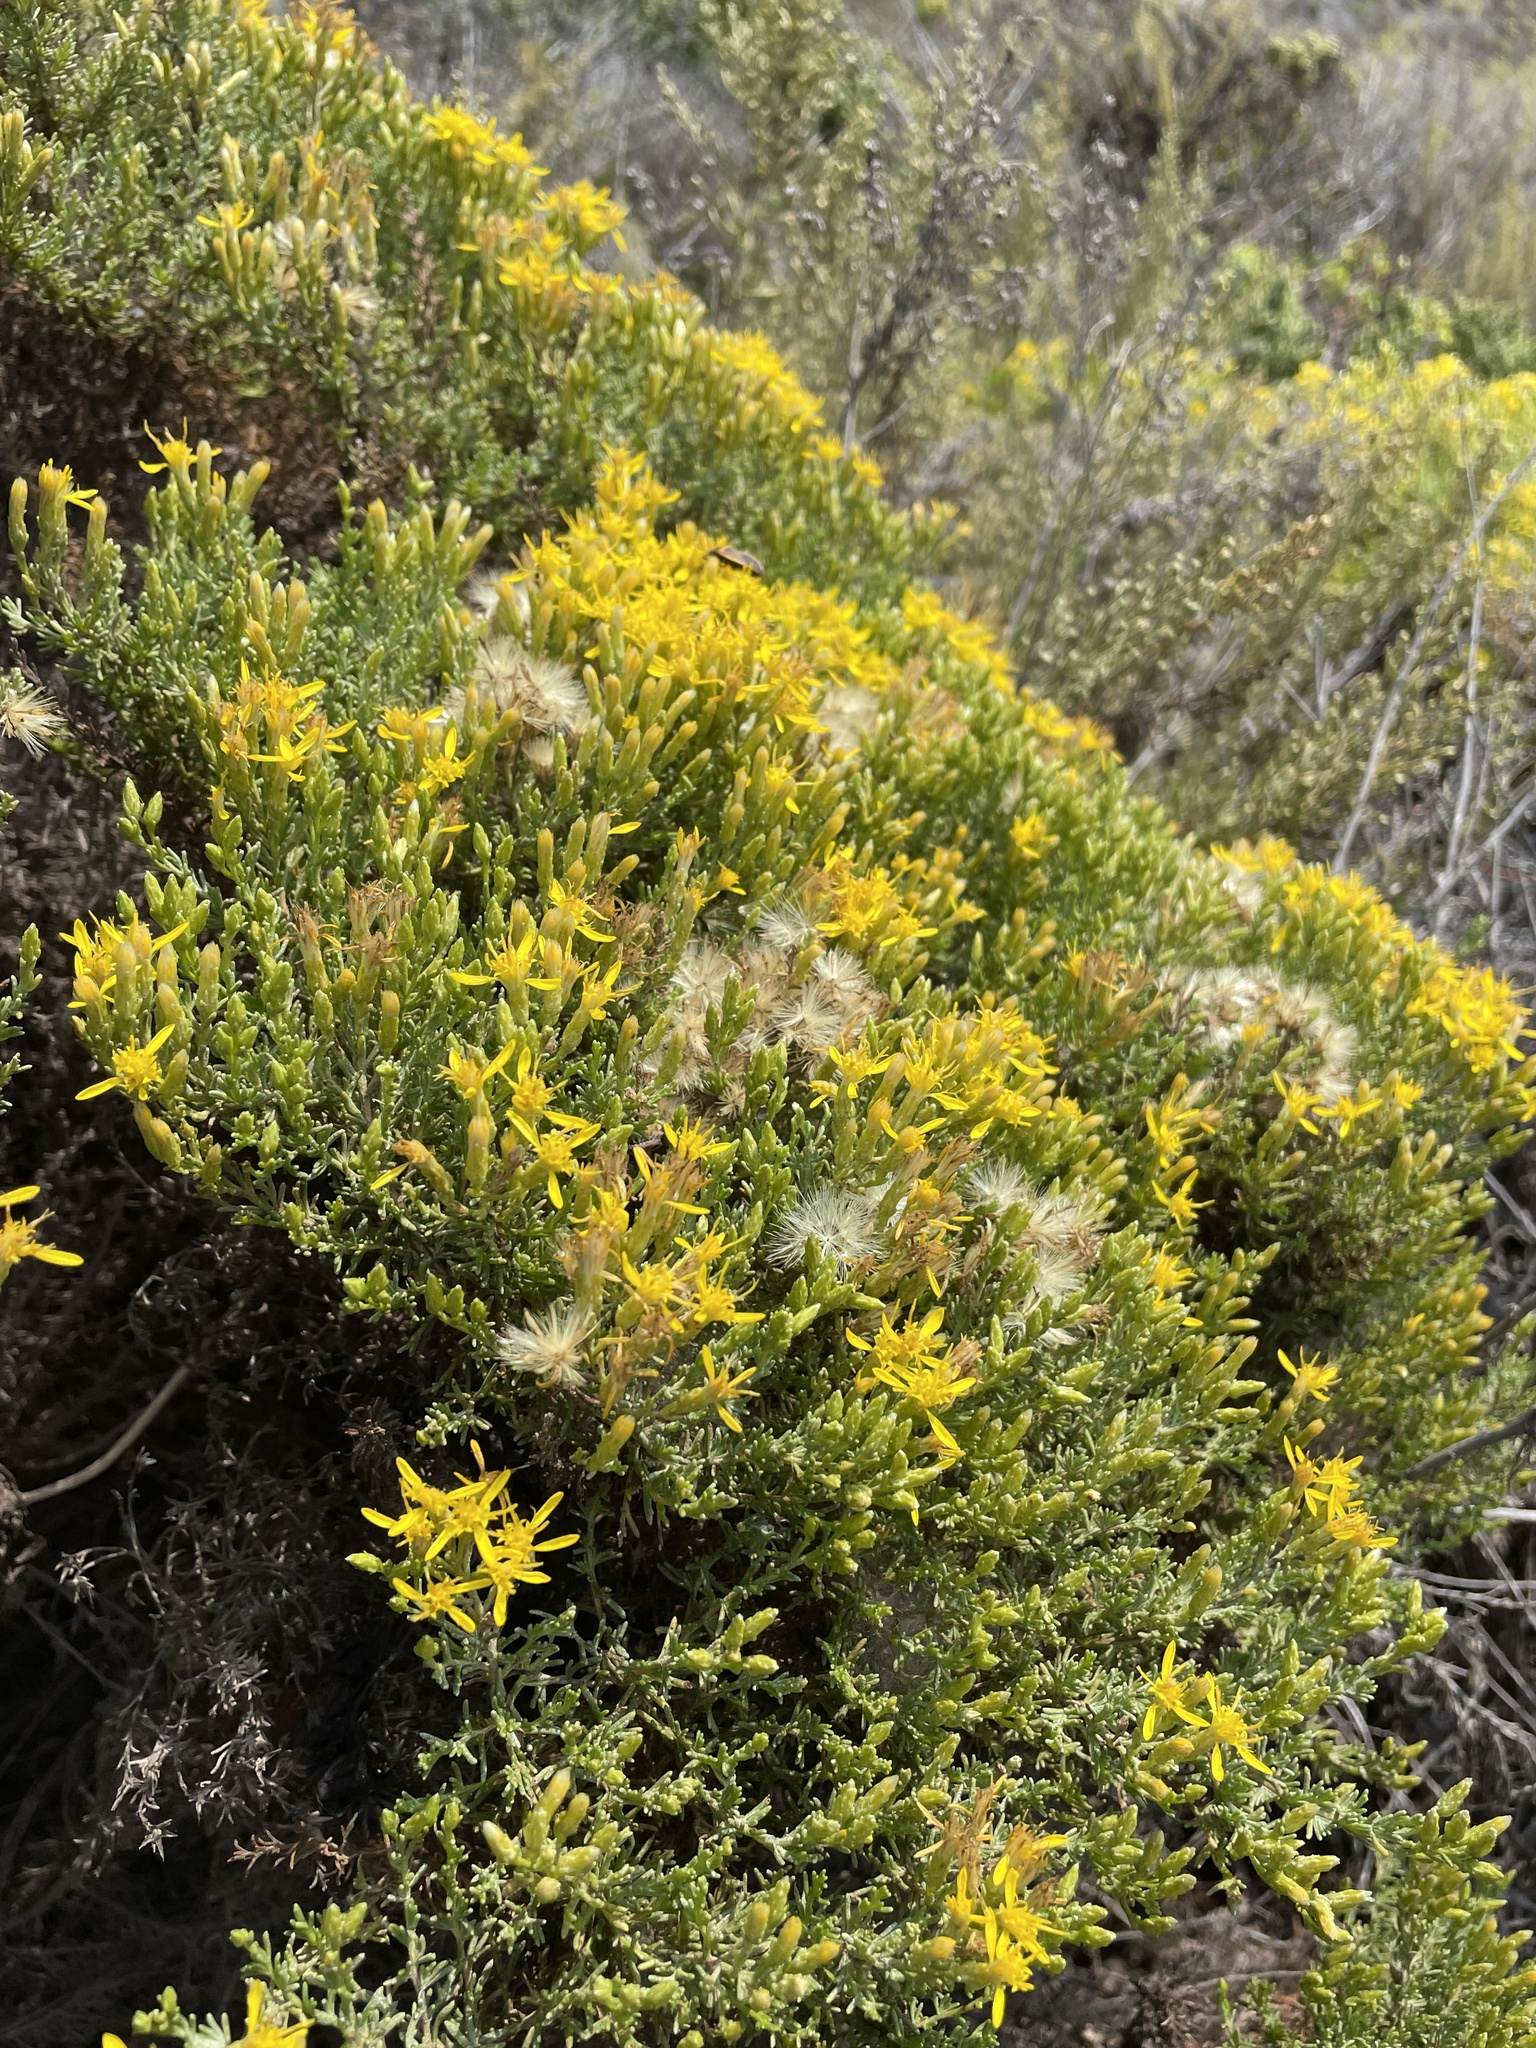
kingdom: Plantae
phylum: Tracheophyta
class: Magnoliopsida
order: Asterales
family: Asteraceae
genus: Ericameria
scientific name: Ericameria ericoides
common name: California goldenbush
